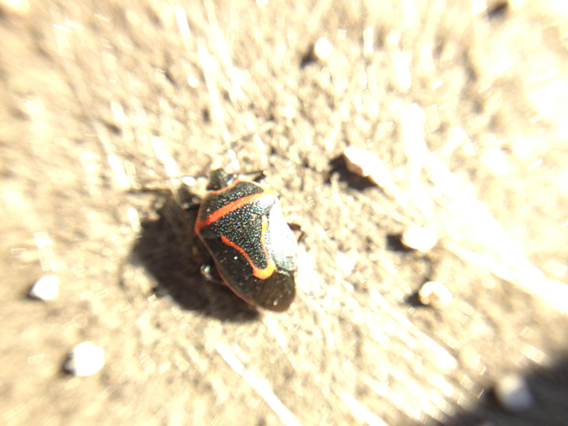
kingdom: Animalia
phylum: Arthropoda
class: Insecta
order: Hemiptera
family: Pentatomidae
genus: Perillus
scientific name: Perillus splendidus
